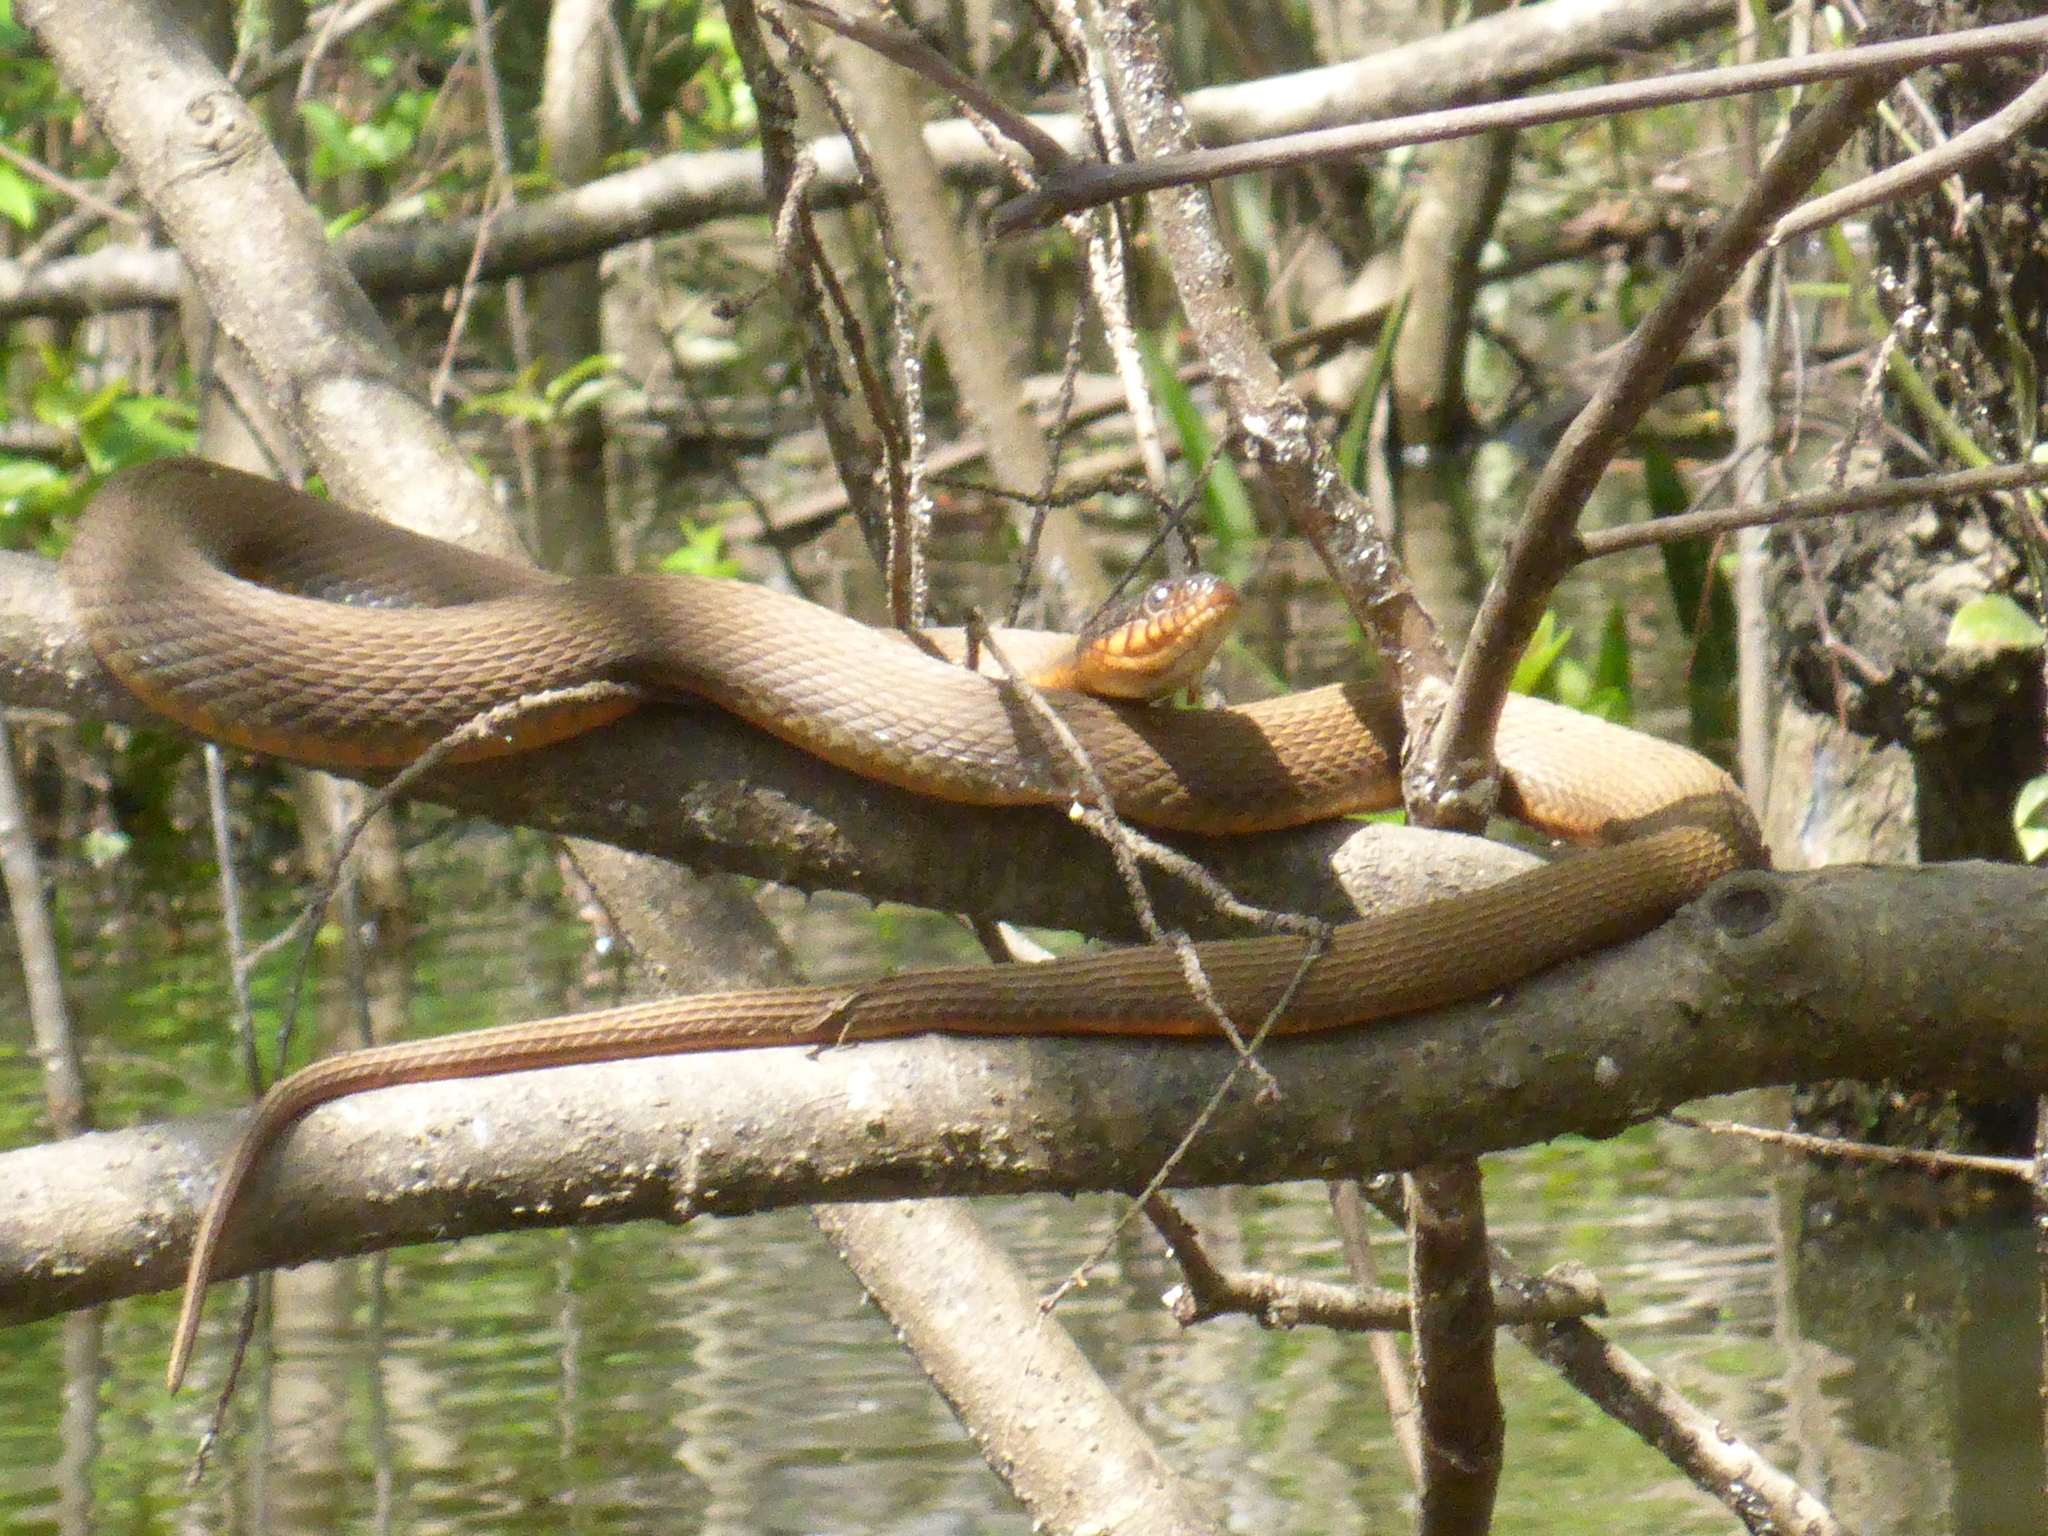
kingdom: Animalia
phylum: Chordata
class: Squamata
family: Colubridae
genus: Nerodia
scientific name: Nerodia erythrogaster
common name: Plainbelly water snake
